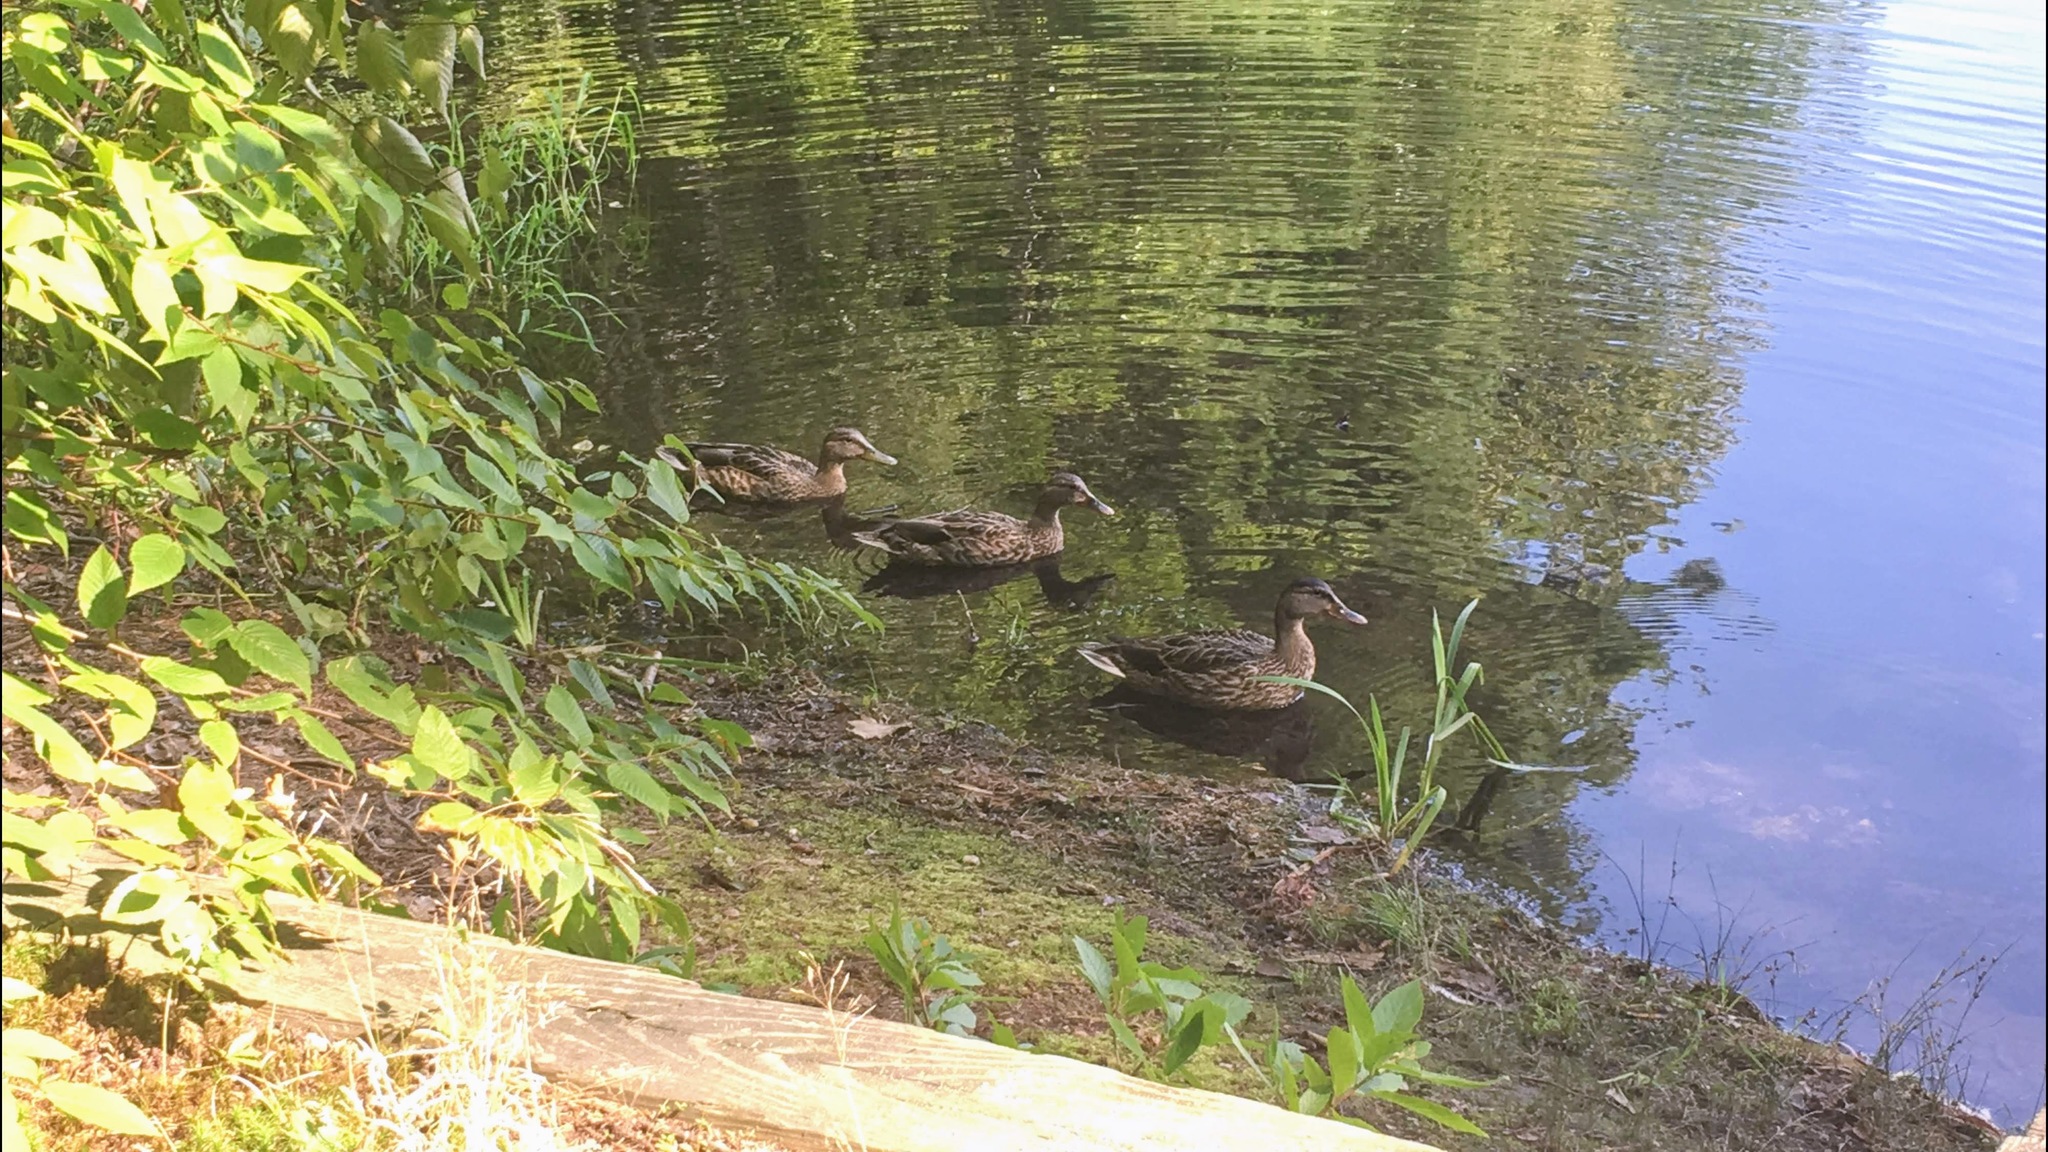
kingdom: Animalia
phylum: Chordata
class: Aves
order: Anseriformes
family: Anatidae
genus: Anas
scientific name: Anas platyrhynchos
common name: Mallard
